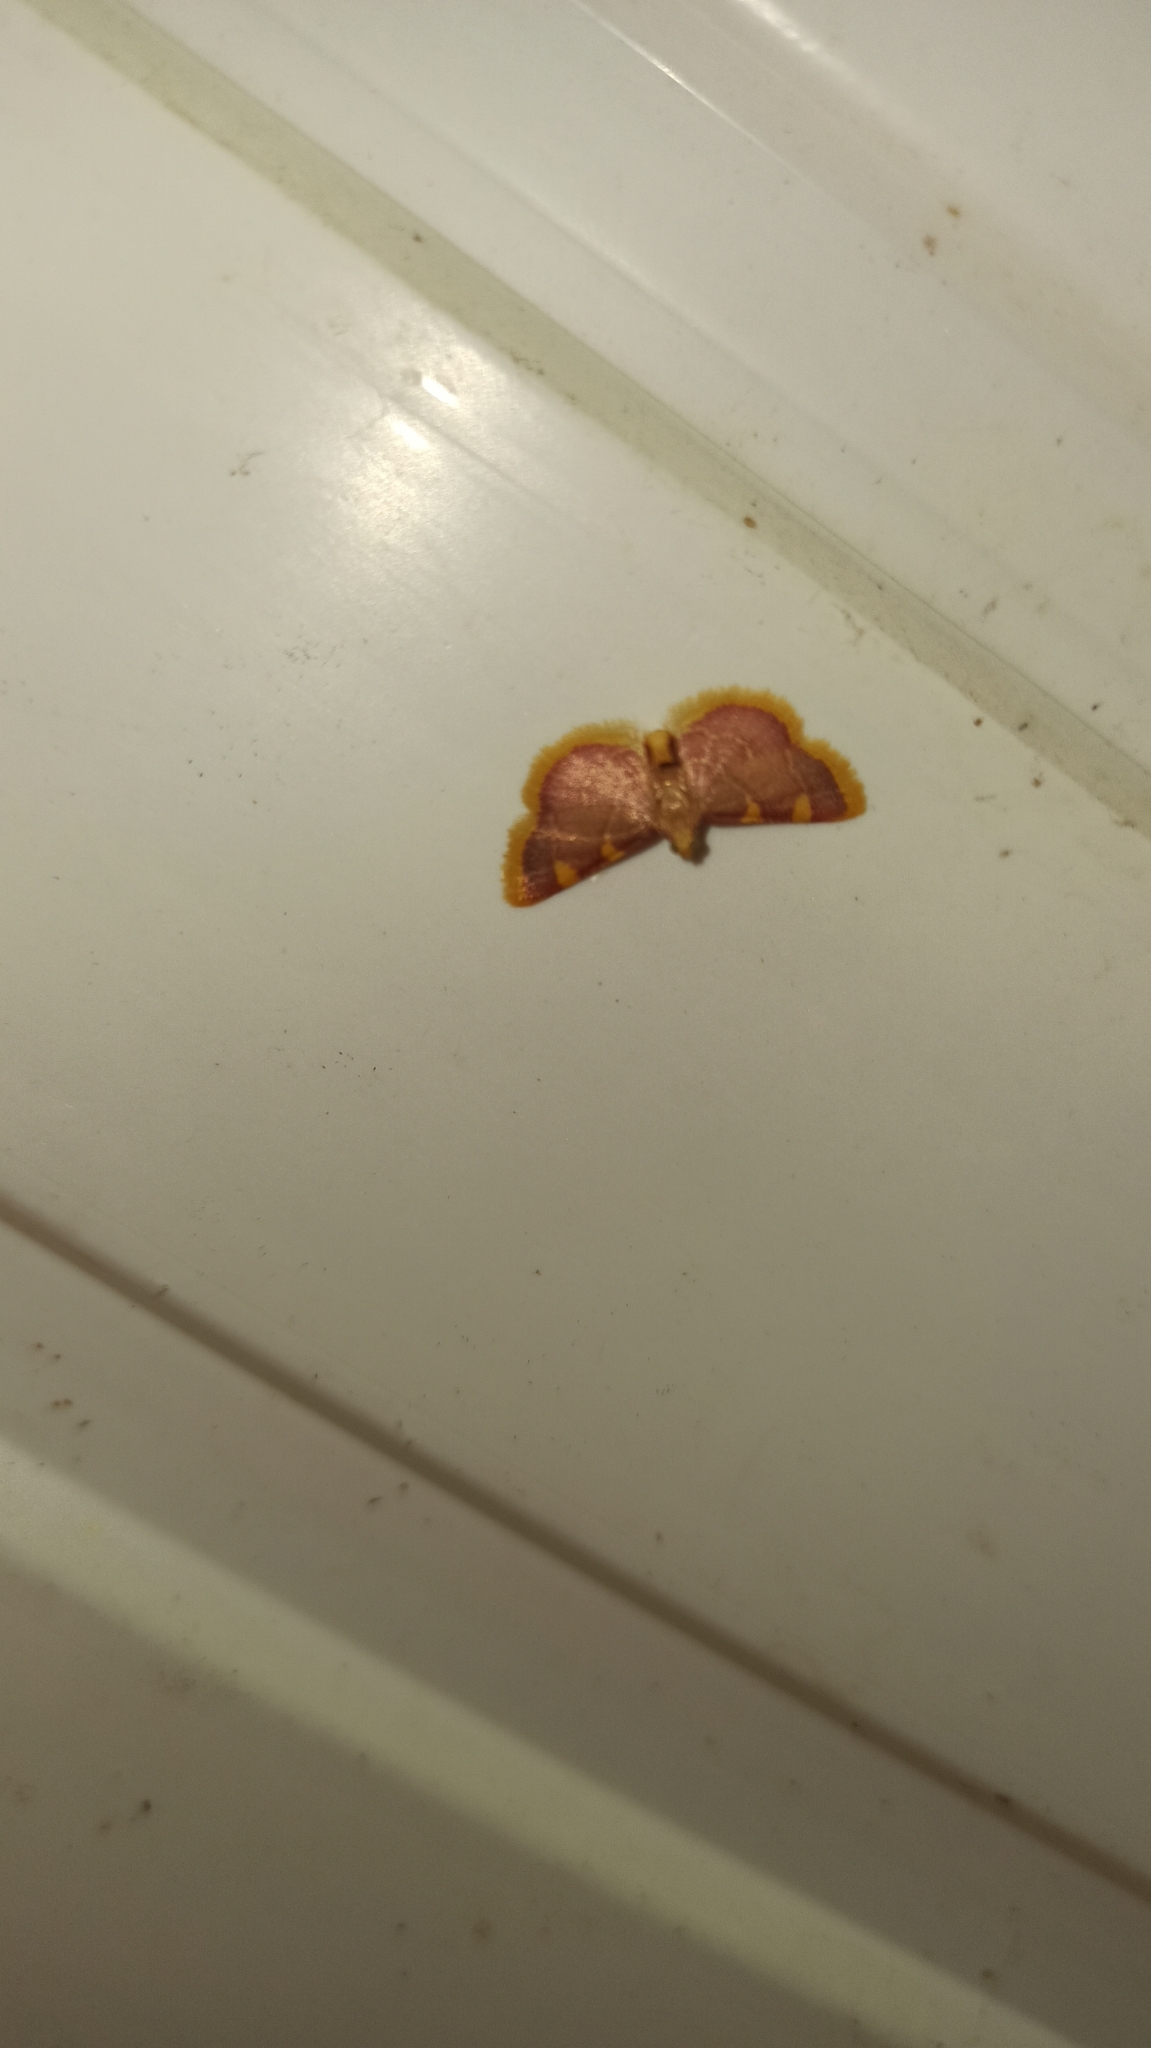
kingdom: Animalia
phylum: Arthropoda
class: Insecta
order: Lepidoptera
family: Pyralidae
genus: Hypsopygia
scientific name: Hypsopygia costalis
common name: Gold triangle
